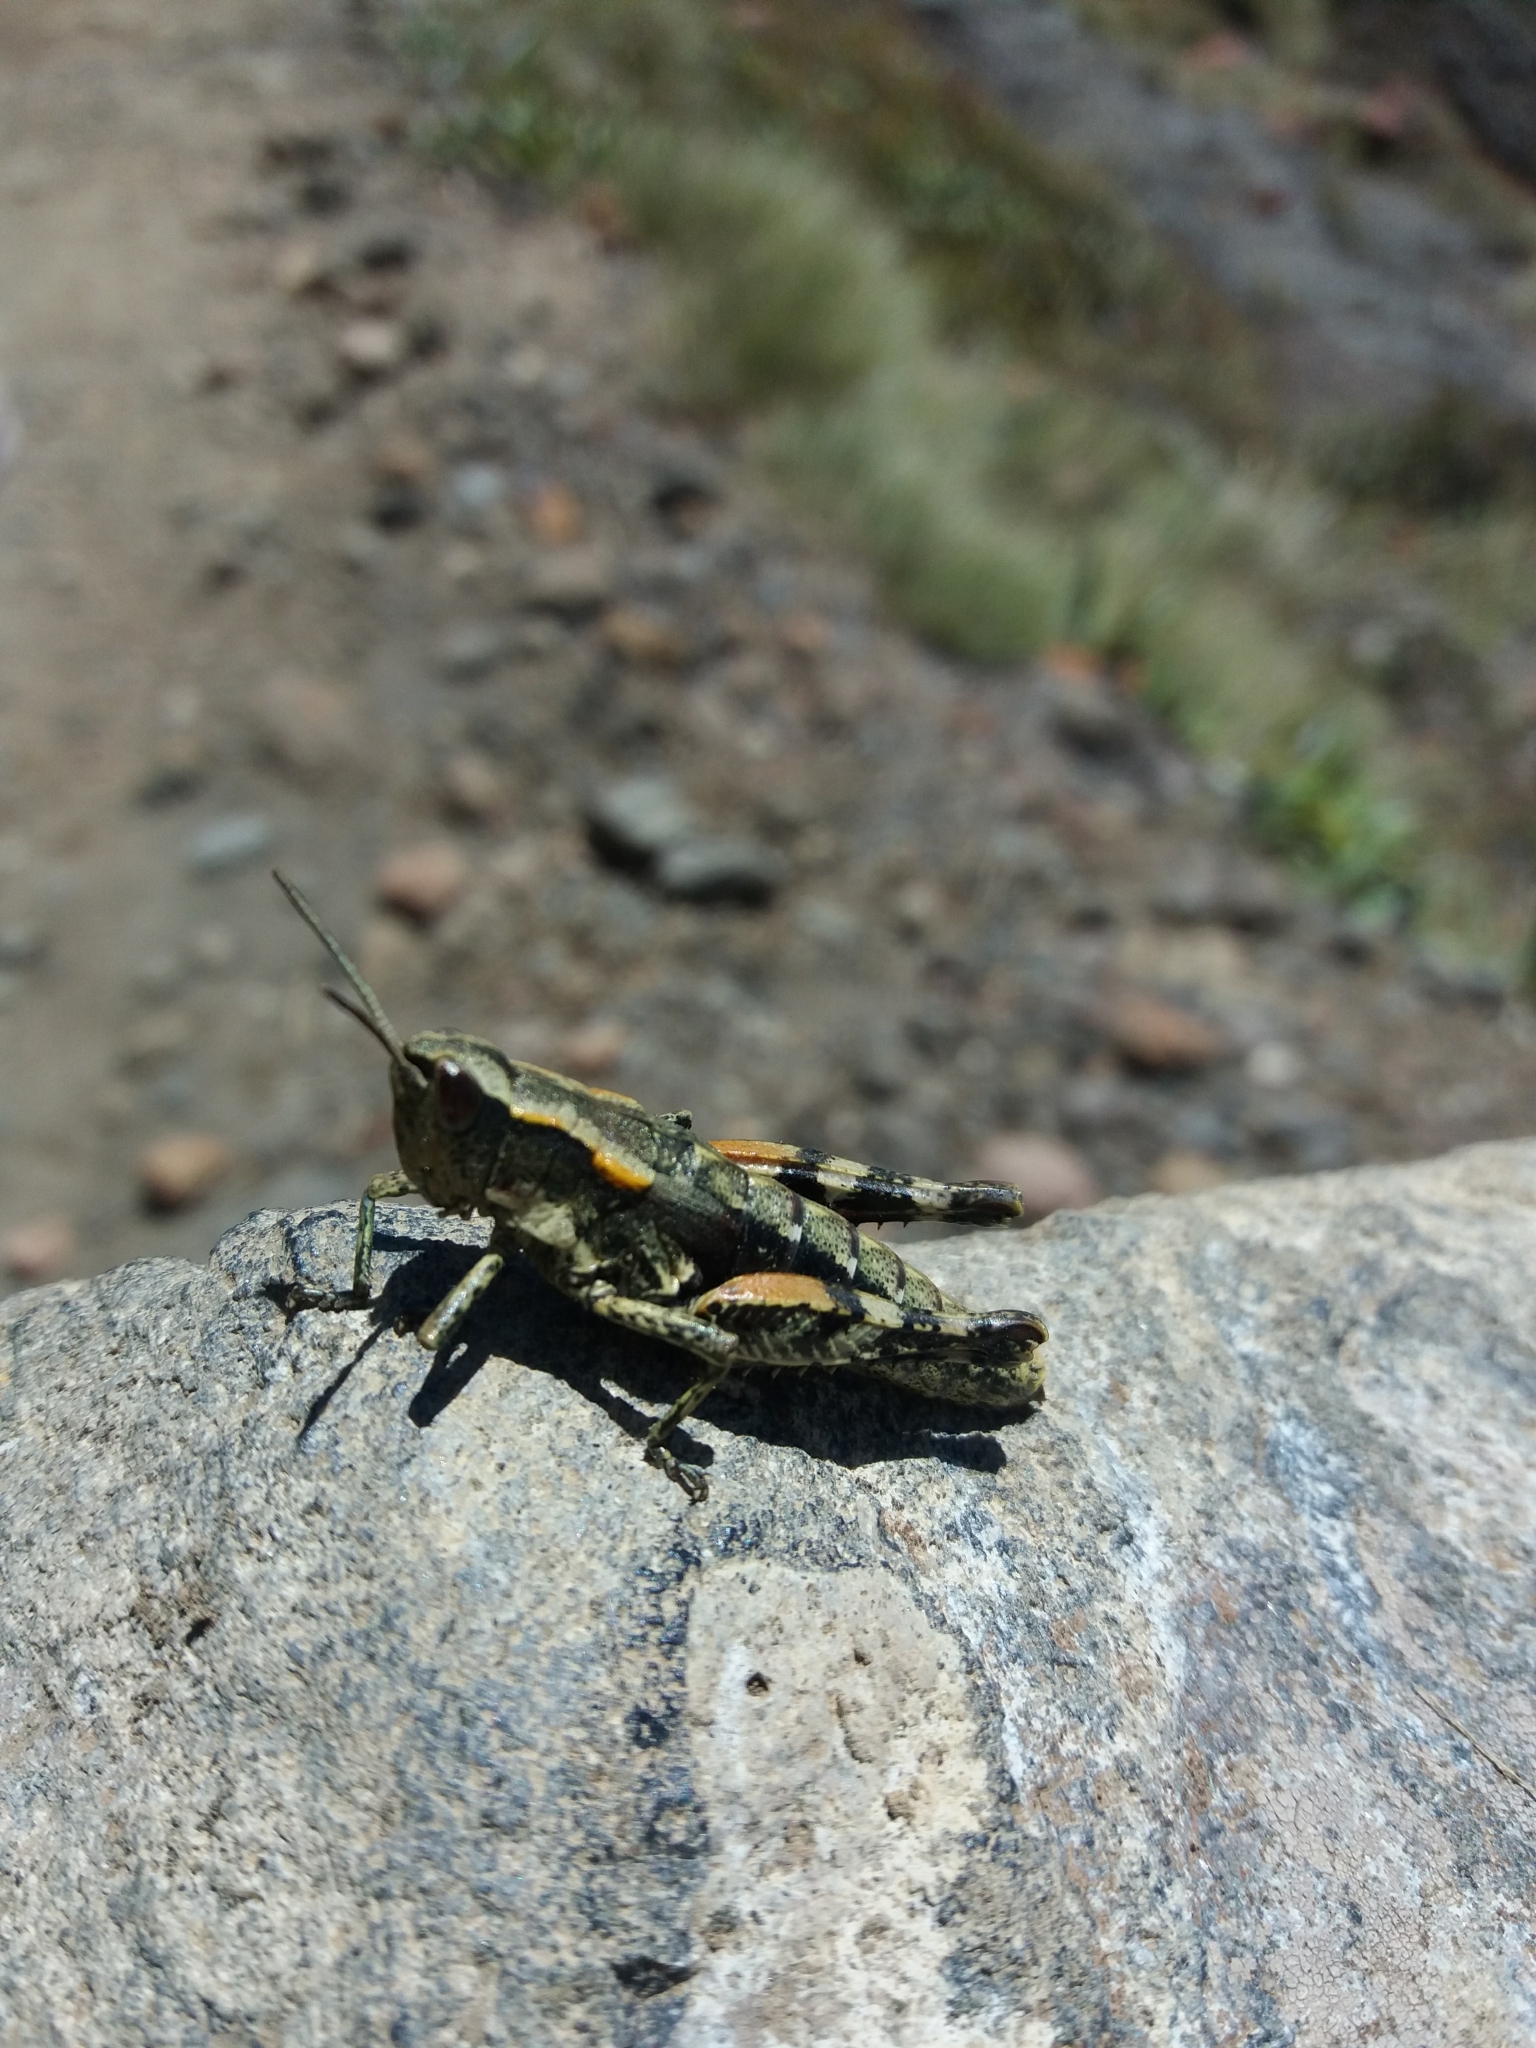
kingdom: Animalia
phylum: Arthropoda
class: Insecta
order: Orthoptera
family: Acrididae
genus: Sigaus
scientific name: Sigaus piliferus
